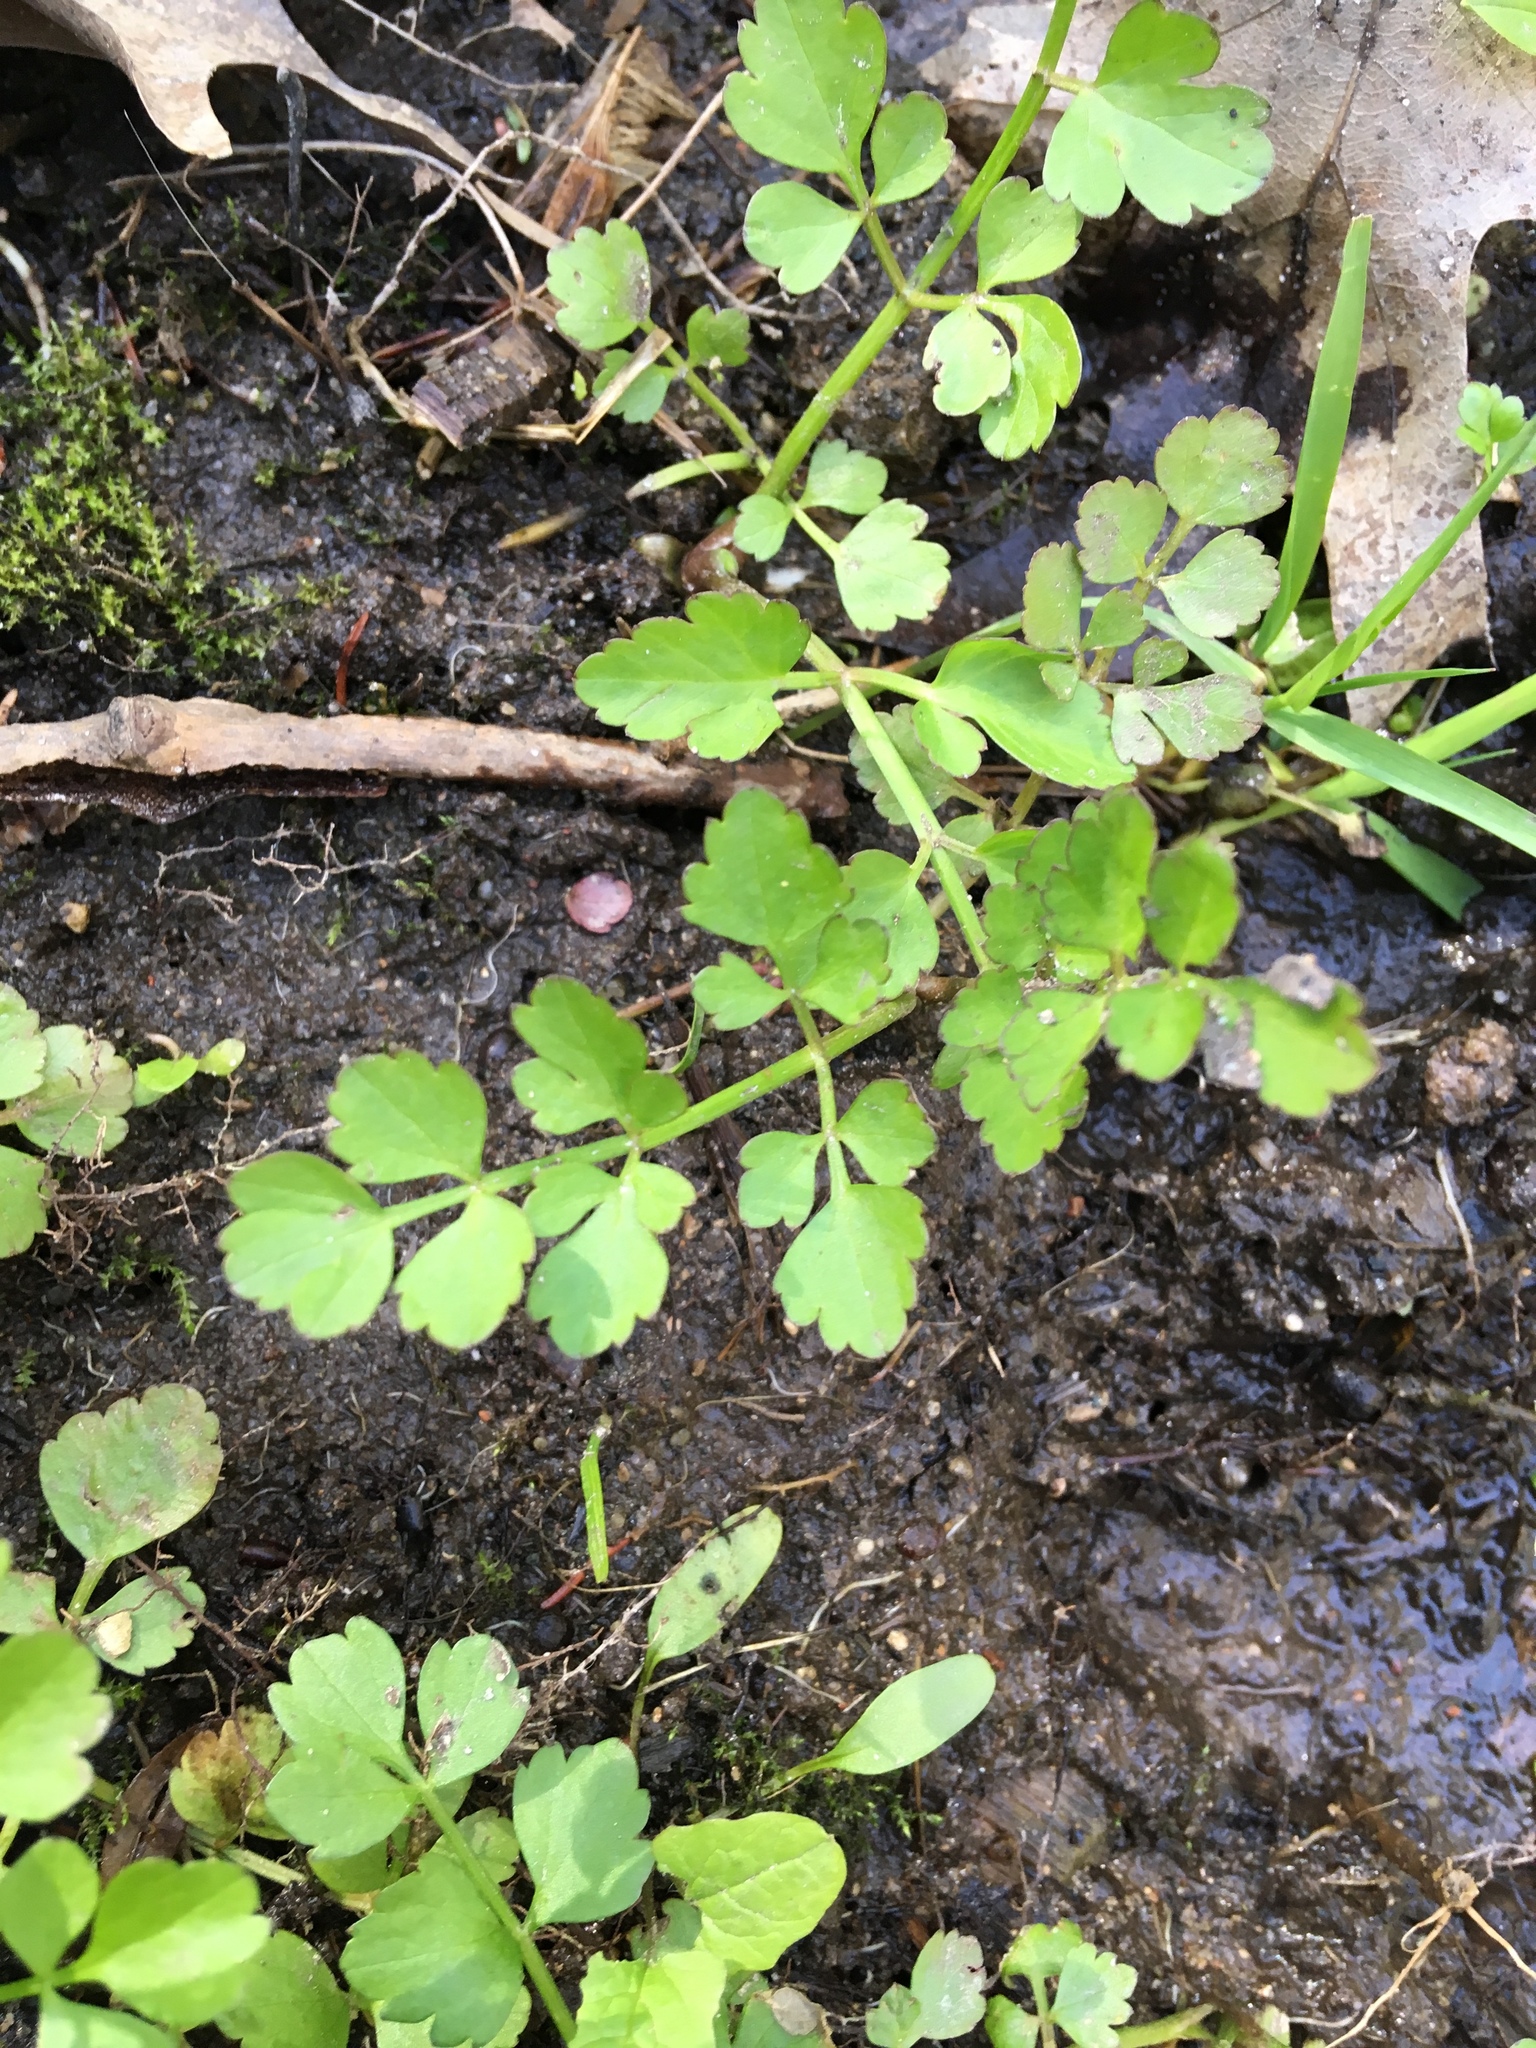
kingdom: Plantae
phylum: Tracheophyta
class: Magnoliopsida
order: Apiales
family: Apiaceae
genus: Oenanthe
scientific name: Oenanthe javanica
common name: Java water-dropwort
